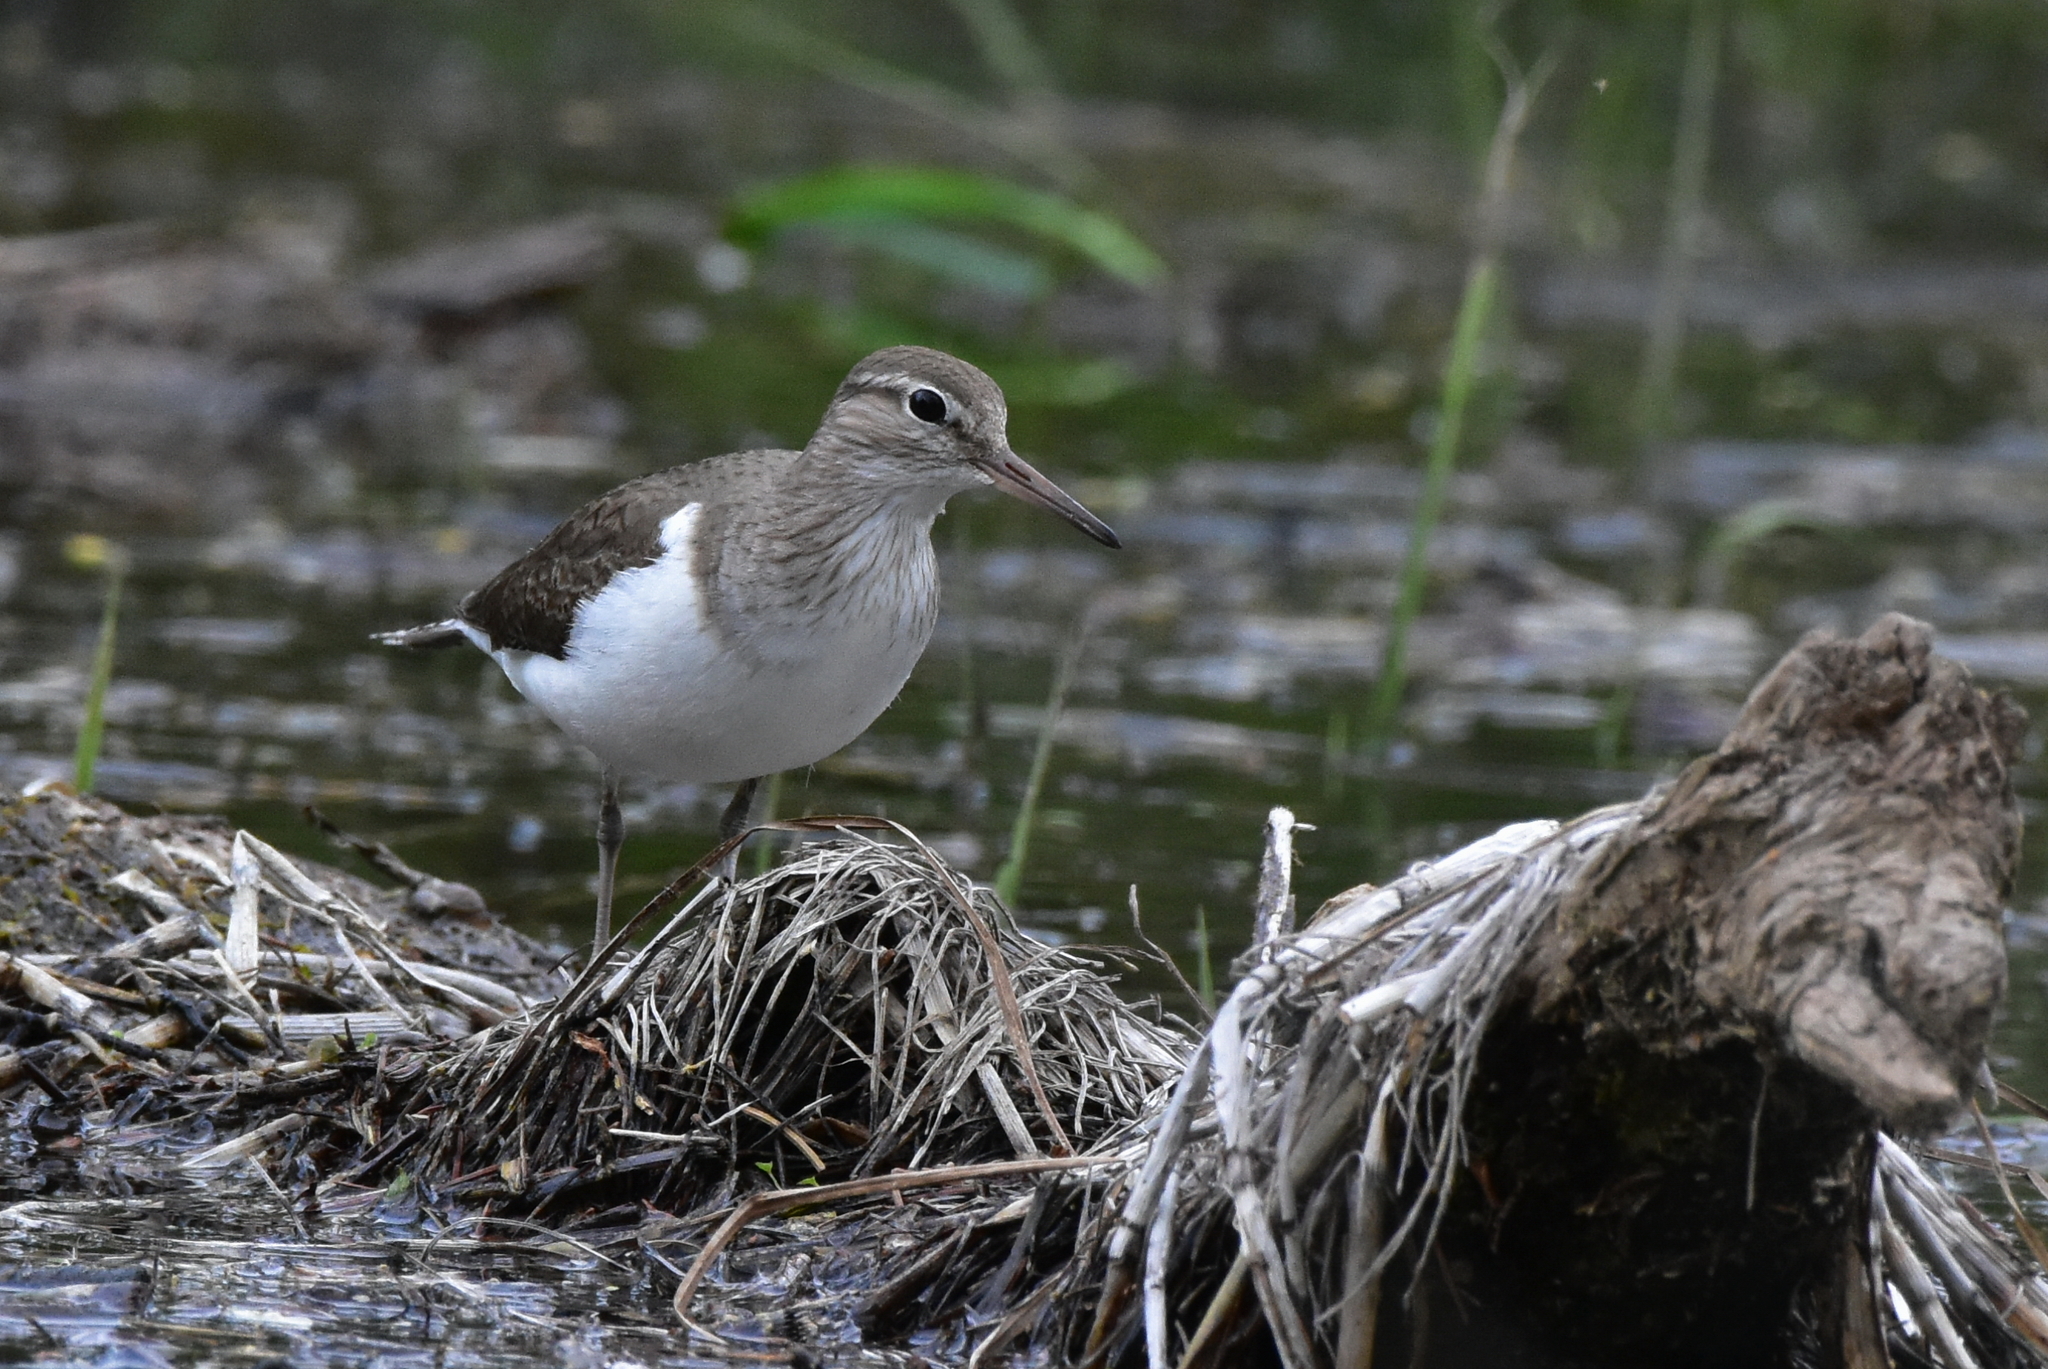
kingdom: Animalia
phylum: Chordata
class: Aves
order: Charadriiformes
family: Scolopacidae
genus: Actitis
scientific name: Actitis hypoleucos
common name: Common sandpiper
